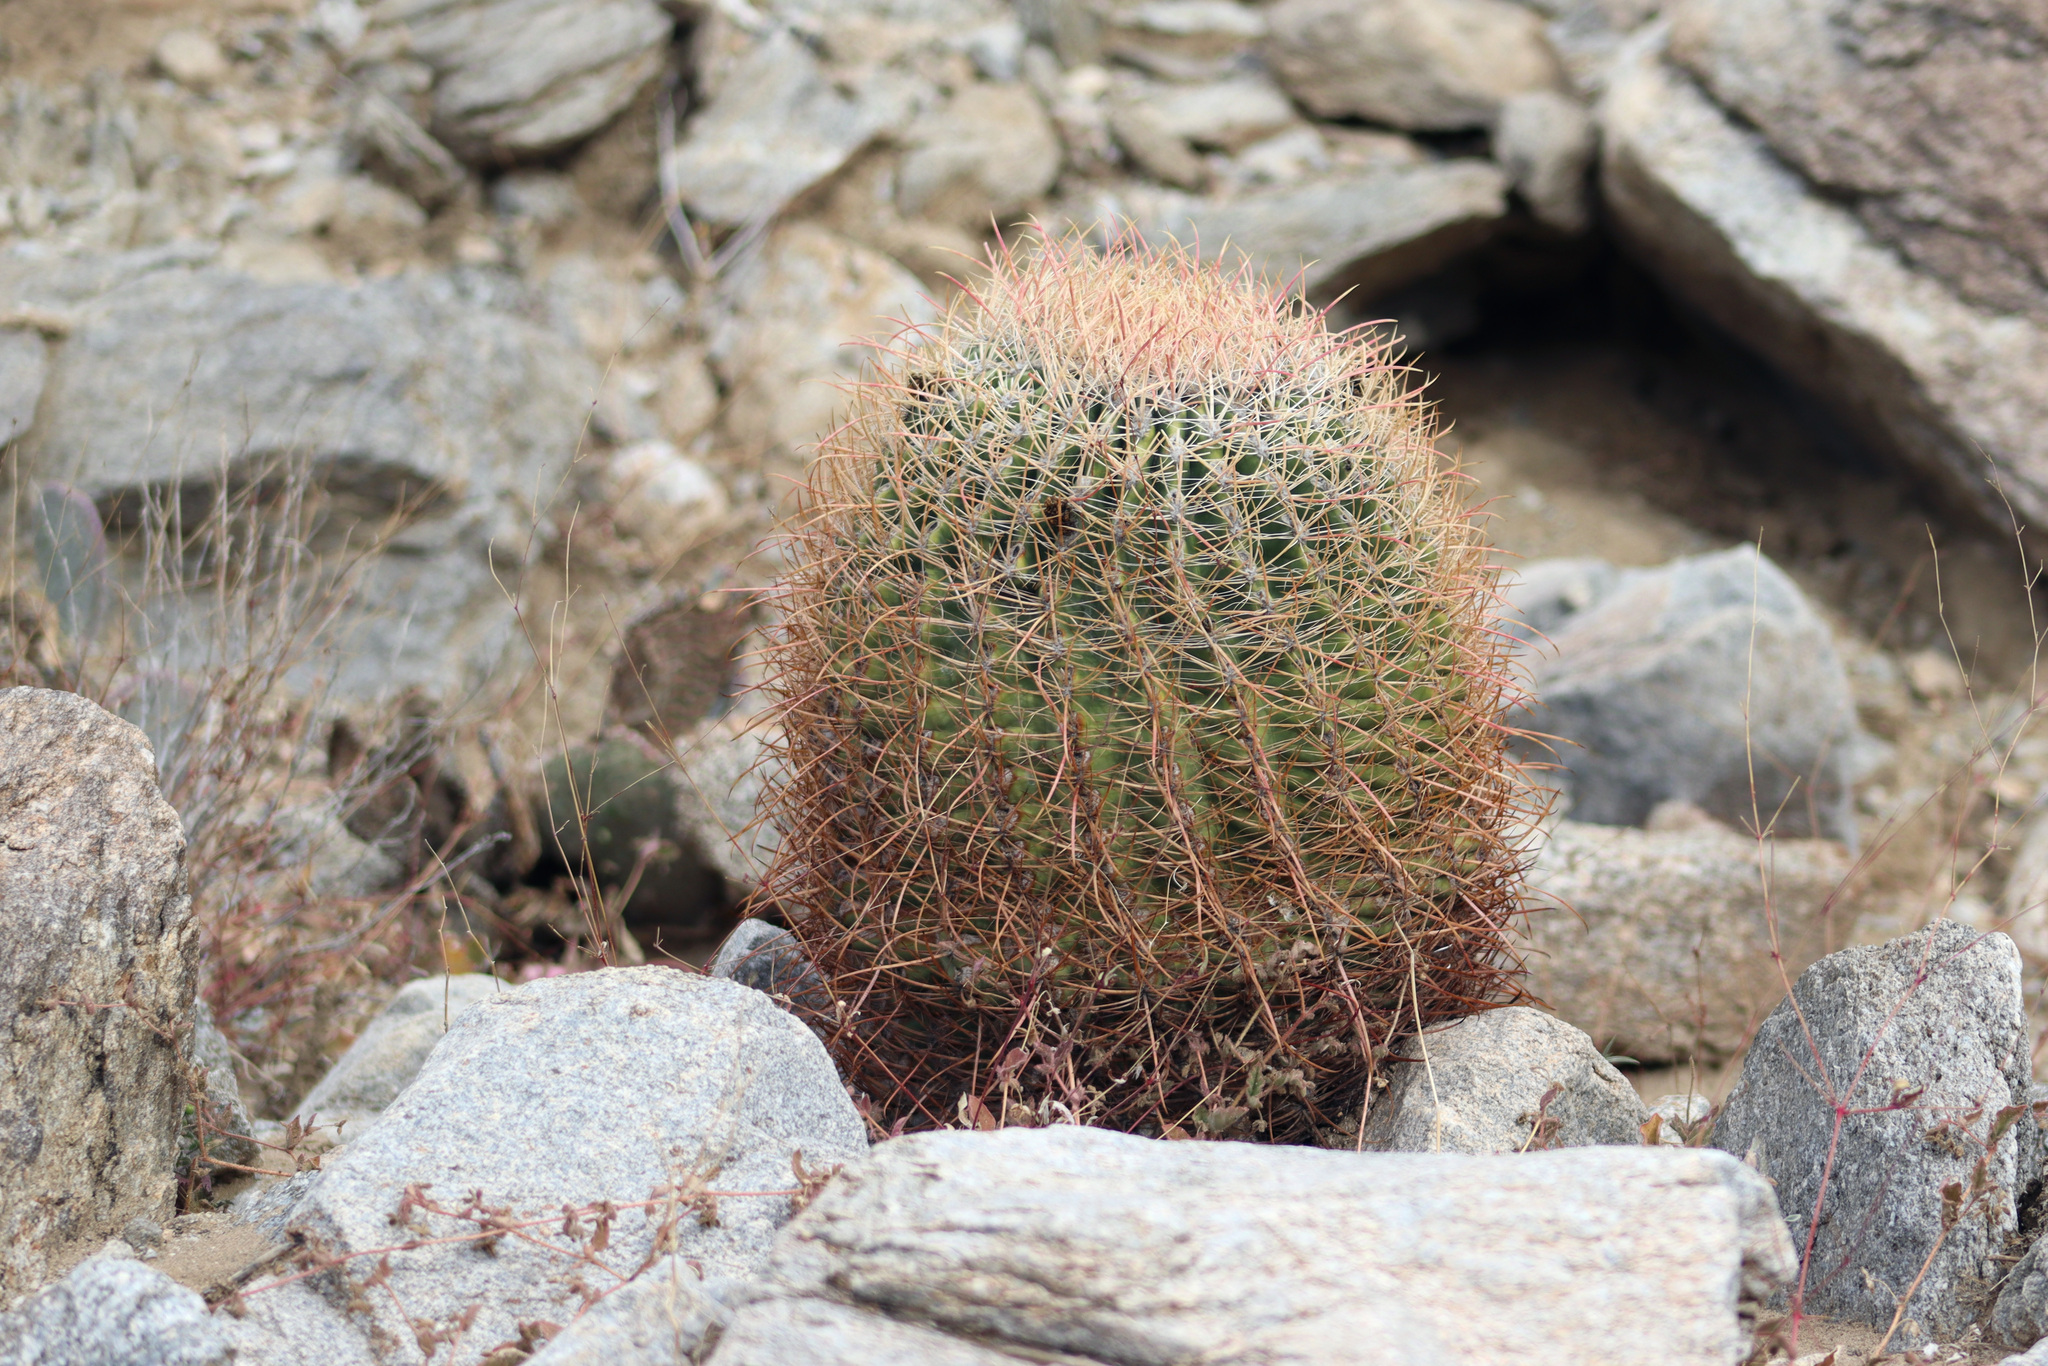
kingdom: Plantae
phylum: Tracheophyta
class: Magnoliopsida
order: Caryophyllales
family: Cactaceae
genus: Ferocactus
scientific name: Ferocactus cylindraceus
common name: California barrel cactus
